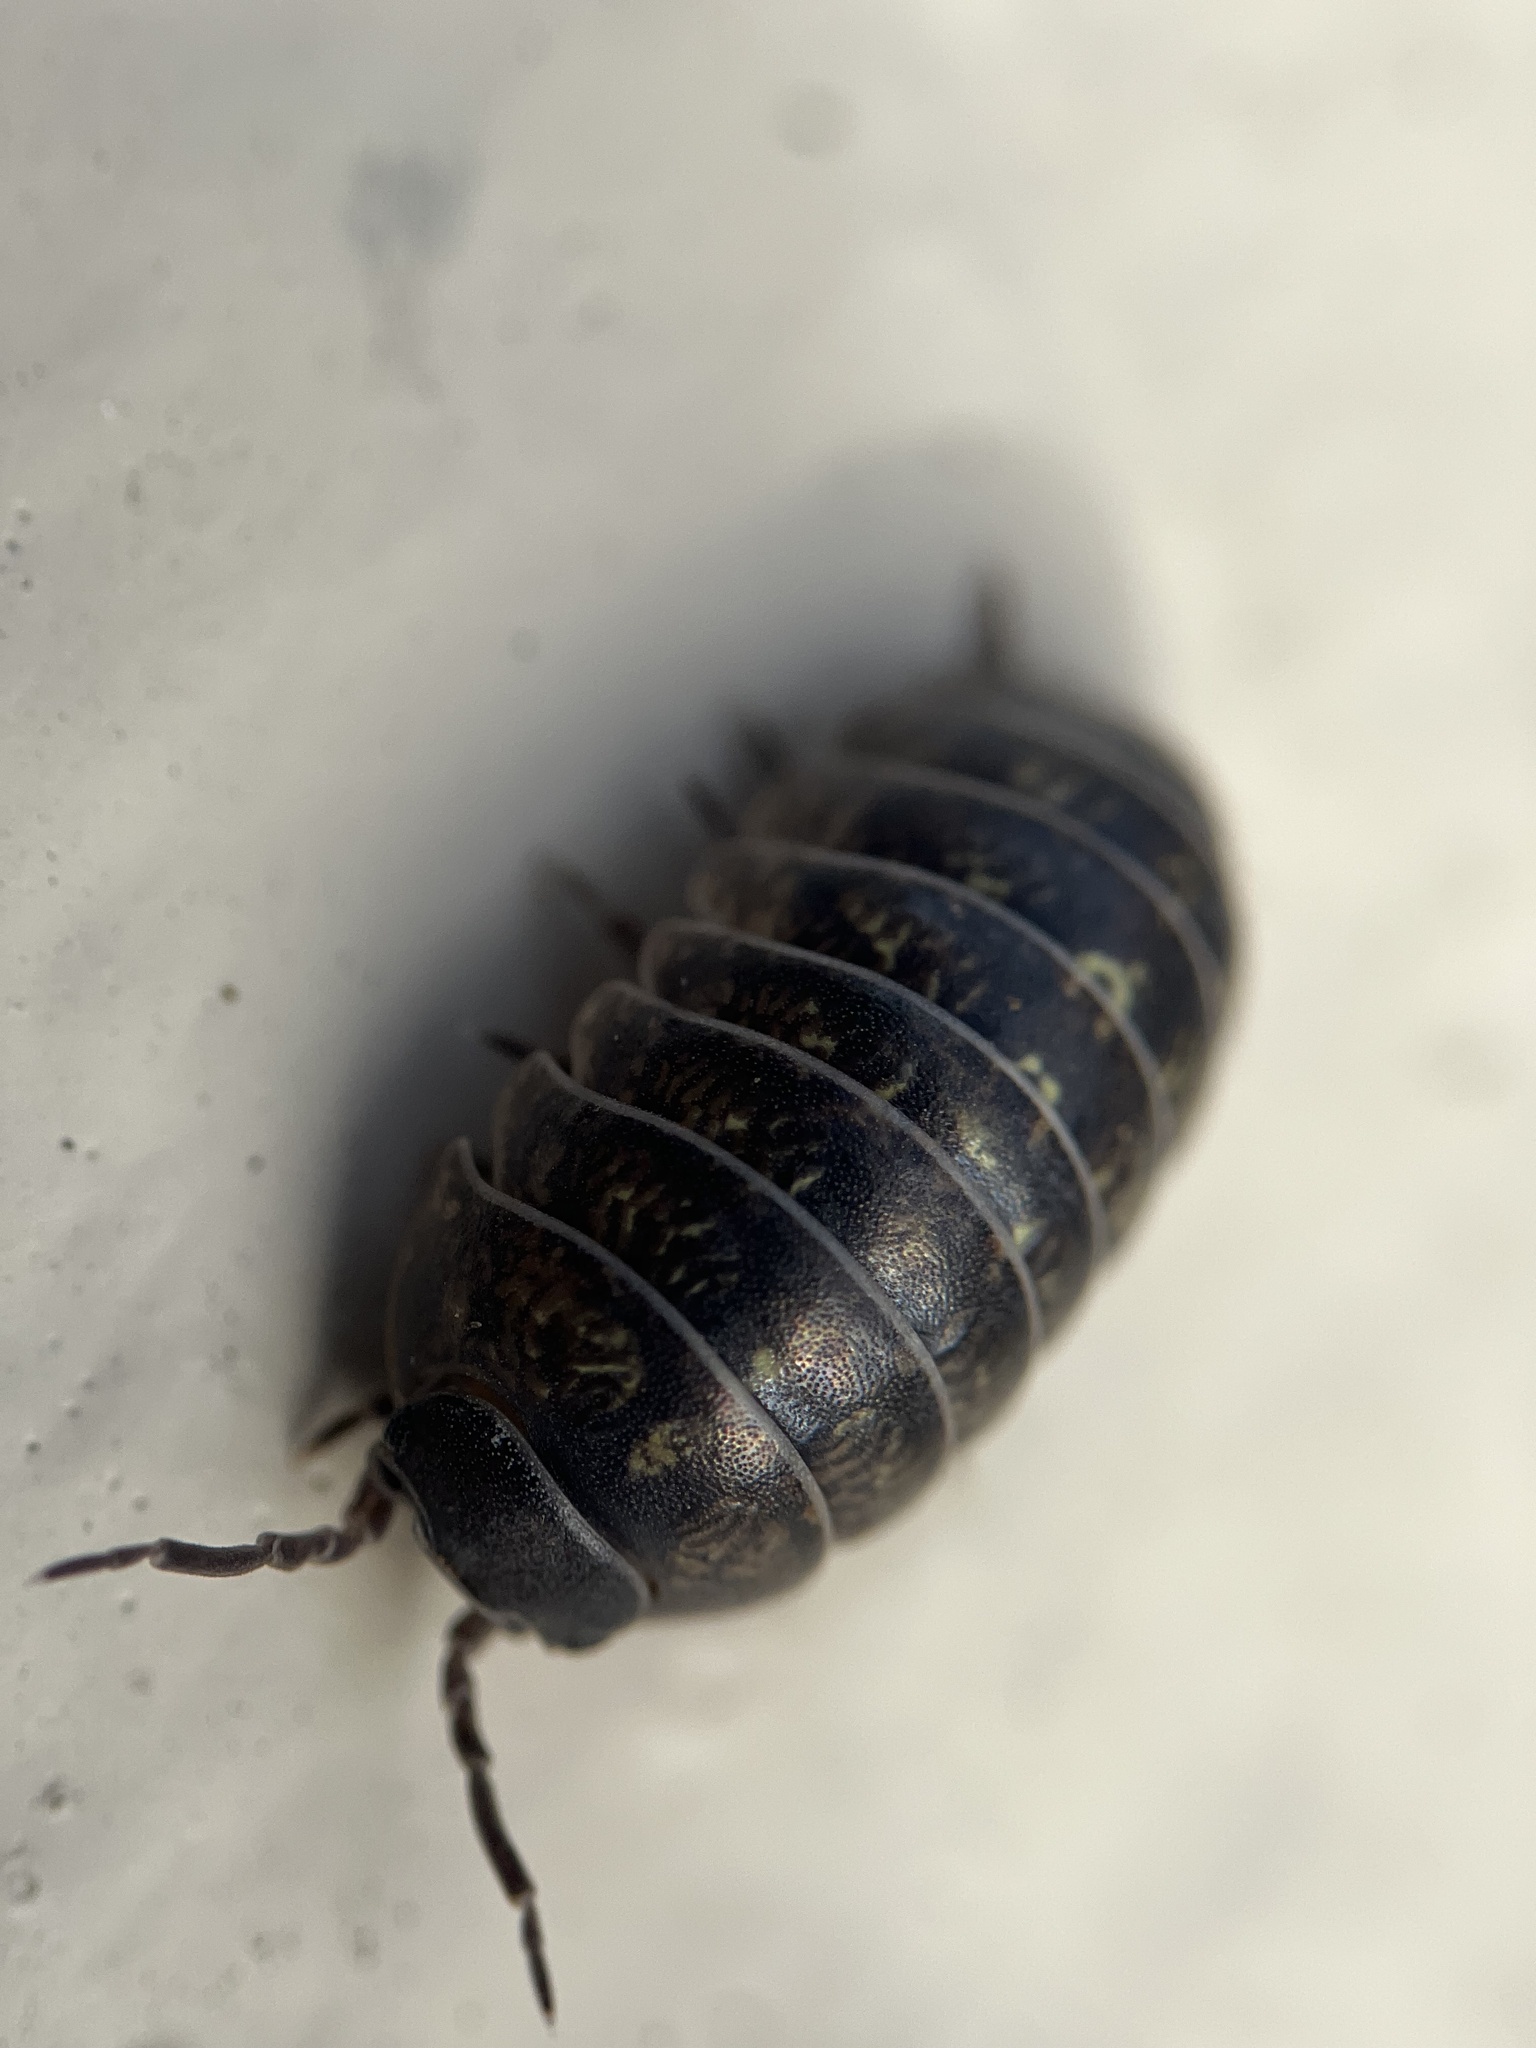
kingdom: Animalia
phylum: Arthropoda
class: Malacostraca
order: Isopoda
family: Armadillidiidae
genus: Armadillidium
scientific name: Armadillidium vulgare
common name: Common pill woodlouse
